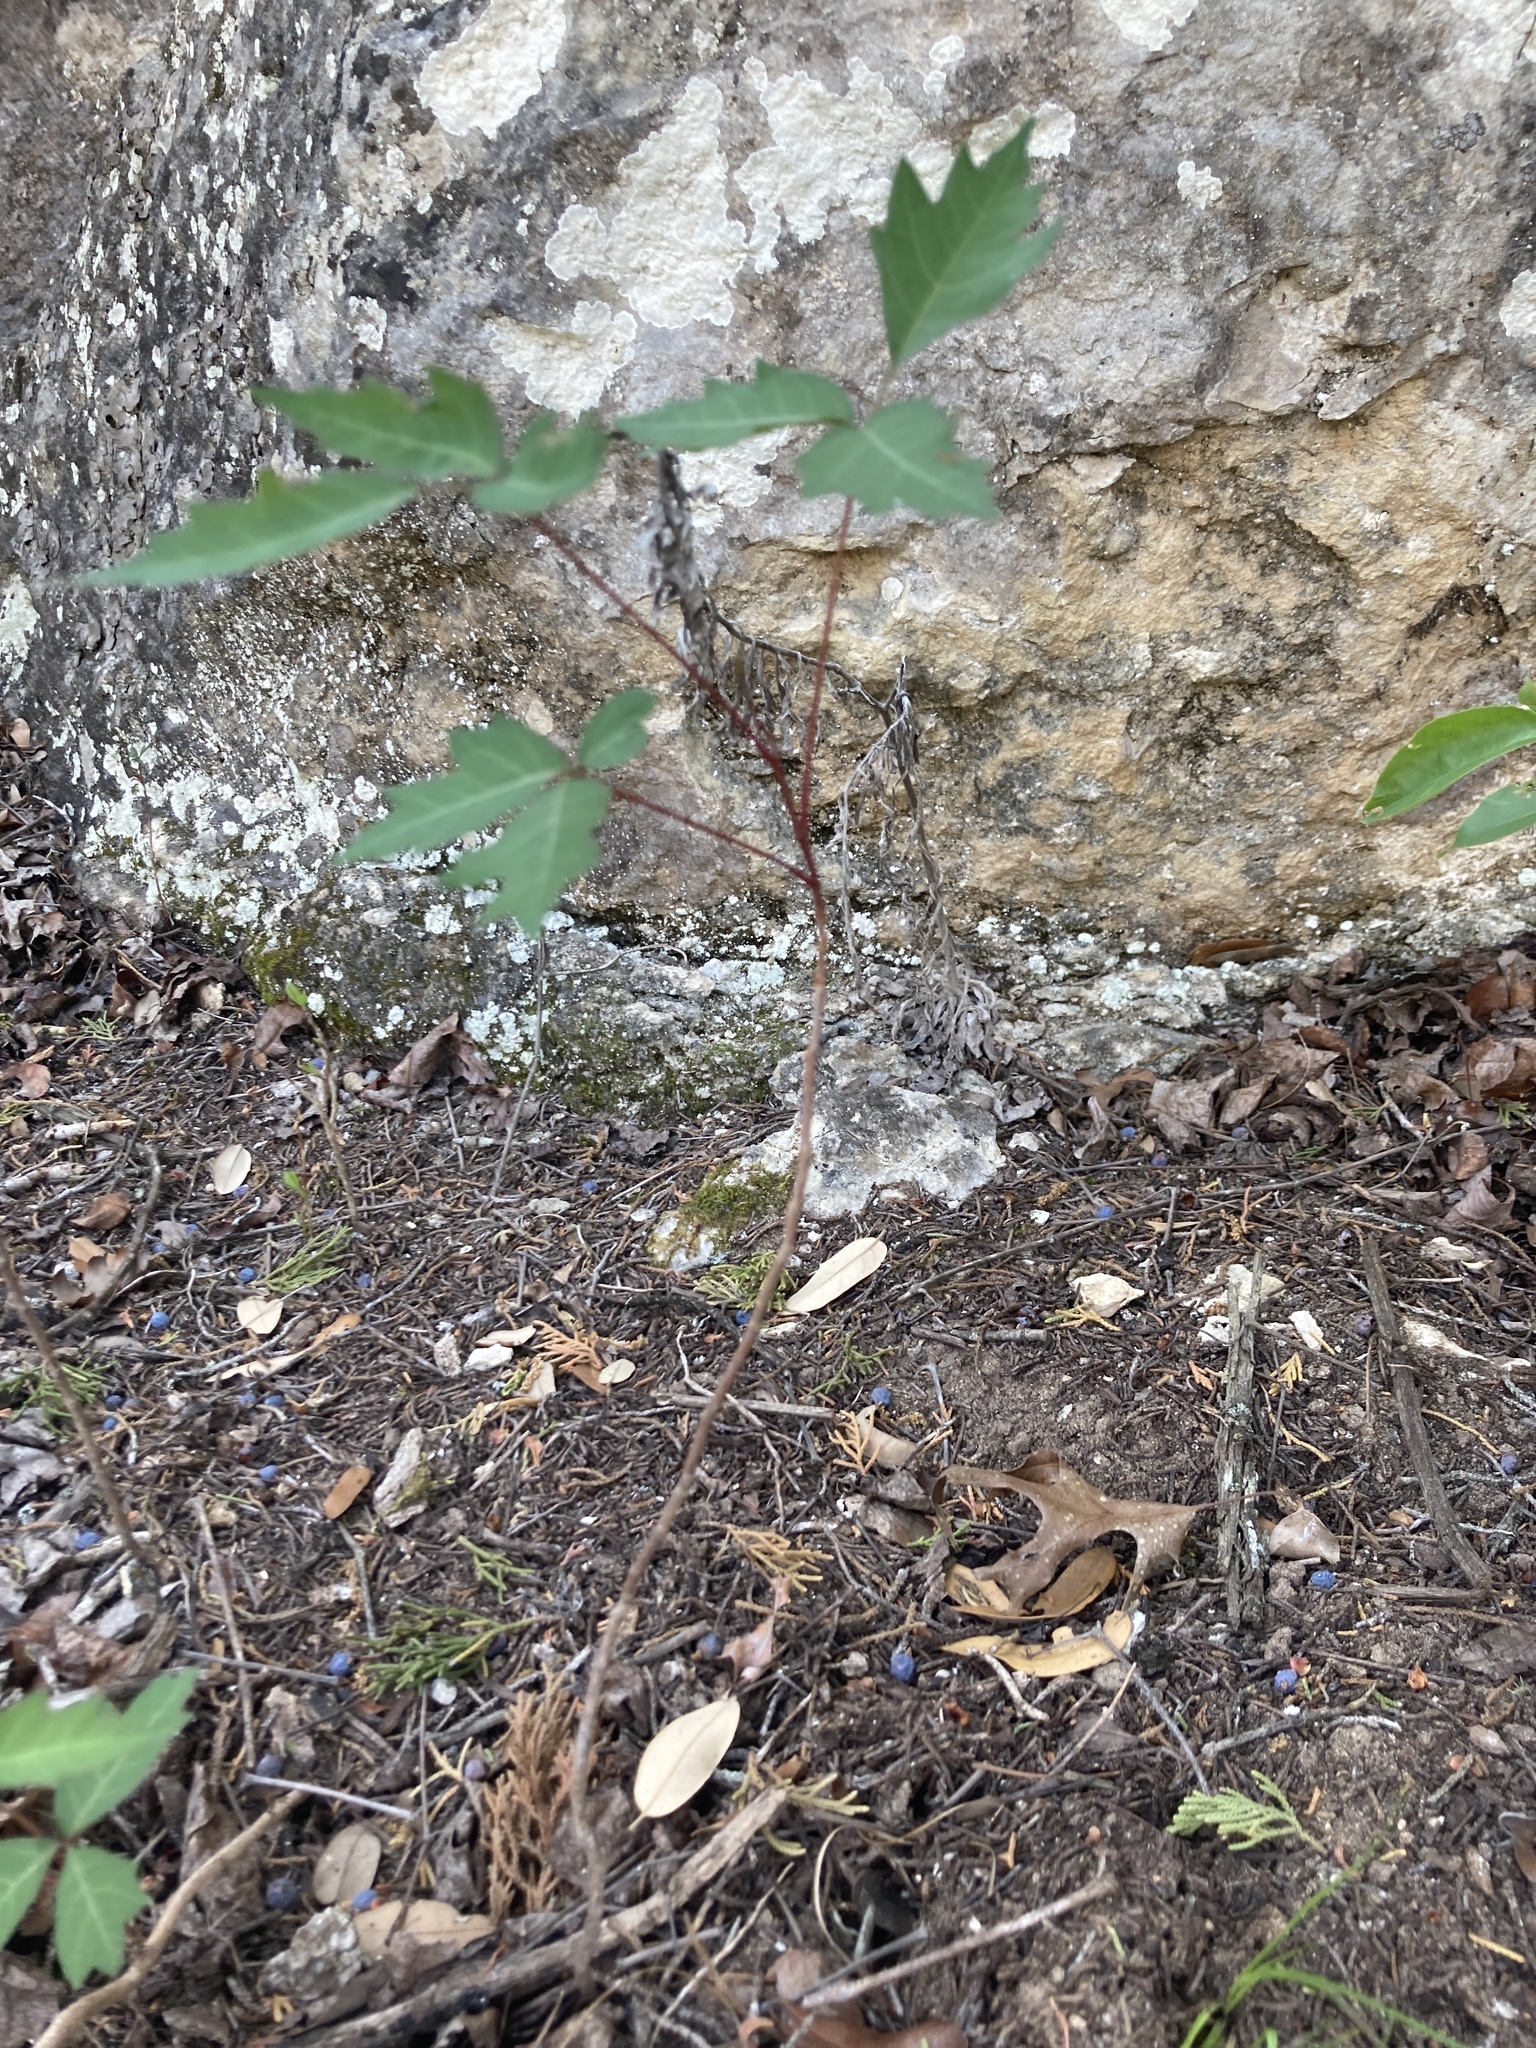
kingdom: Plantae
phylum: Tracheophyta
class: Magnoliopsida
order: Sapindales
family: Anacardiaceae
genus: Toxicodendron
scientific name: Toxicodendron radicans
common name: Poison ivy
